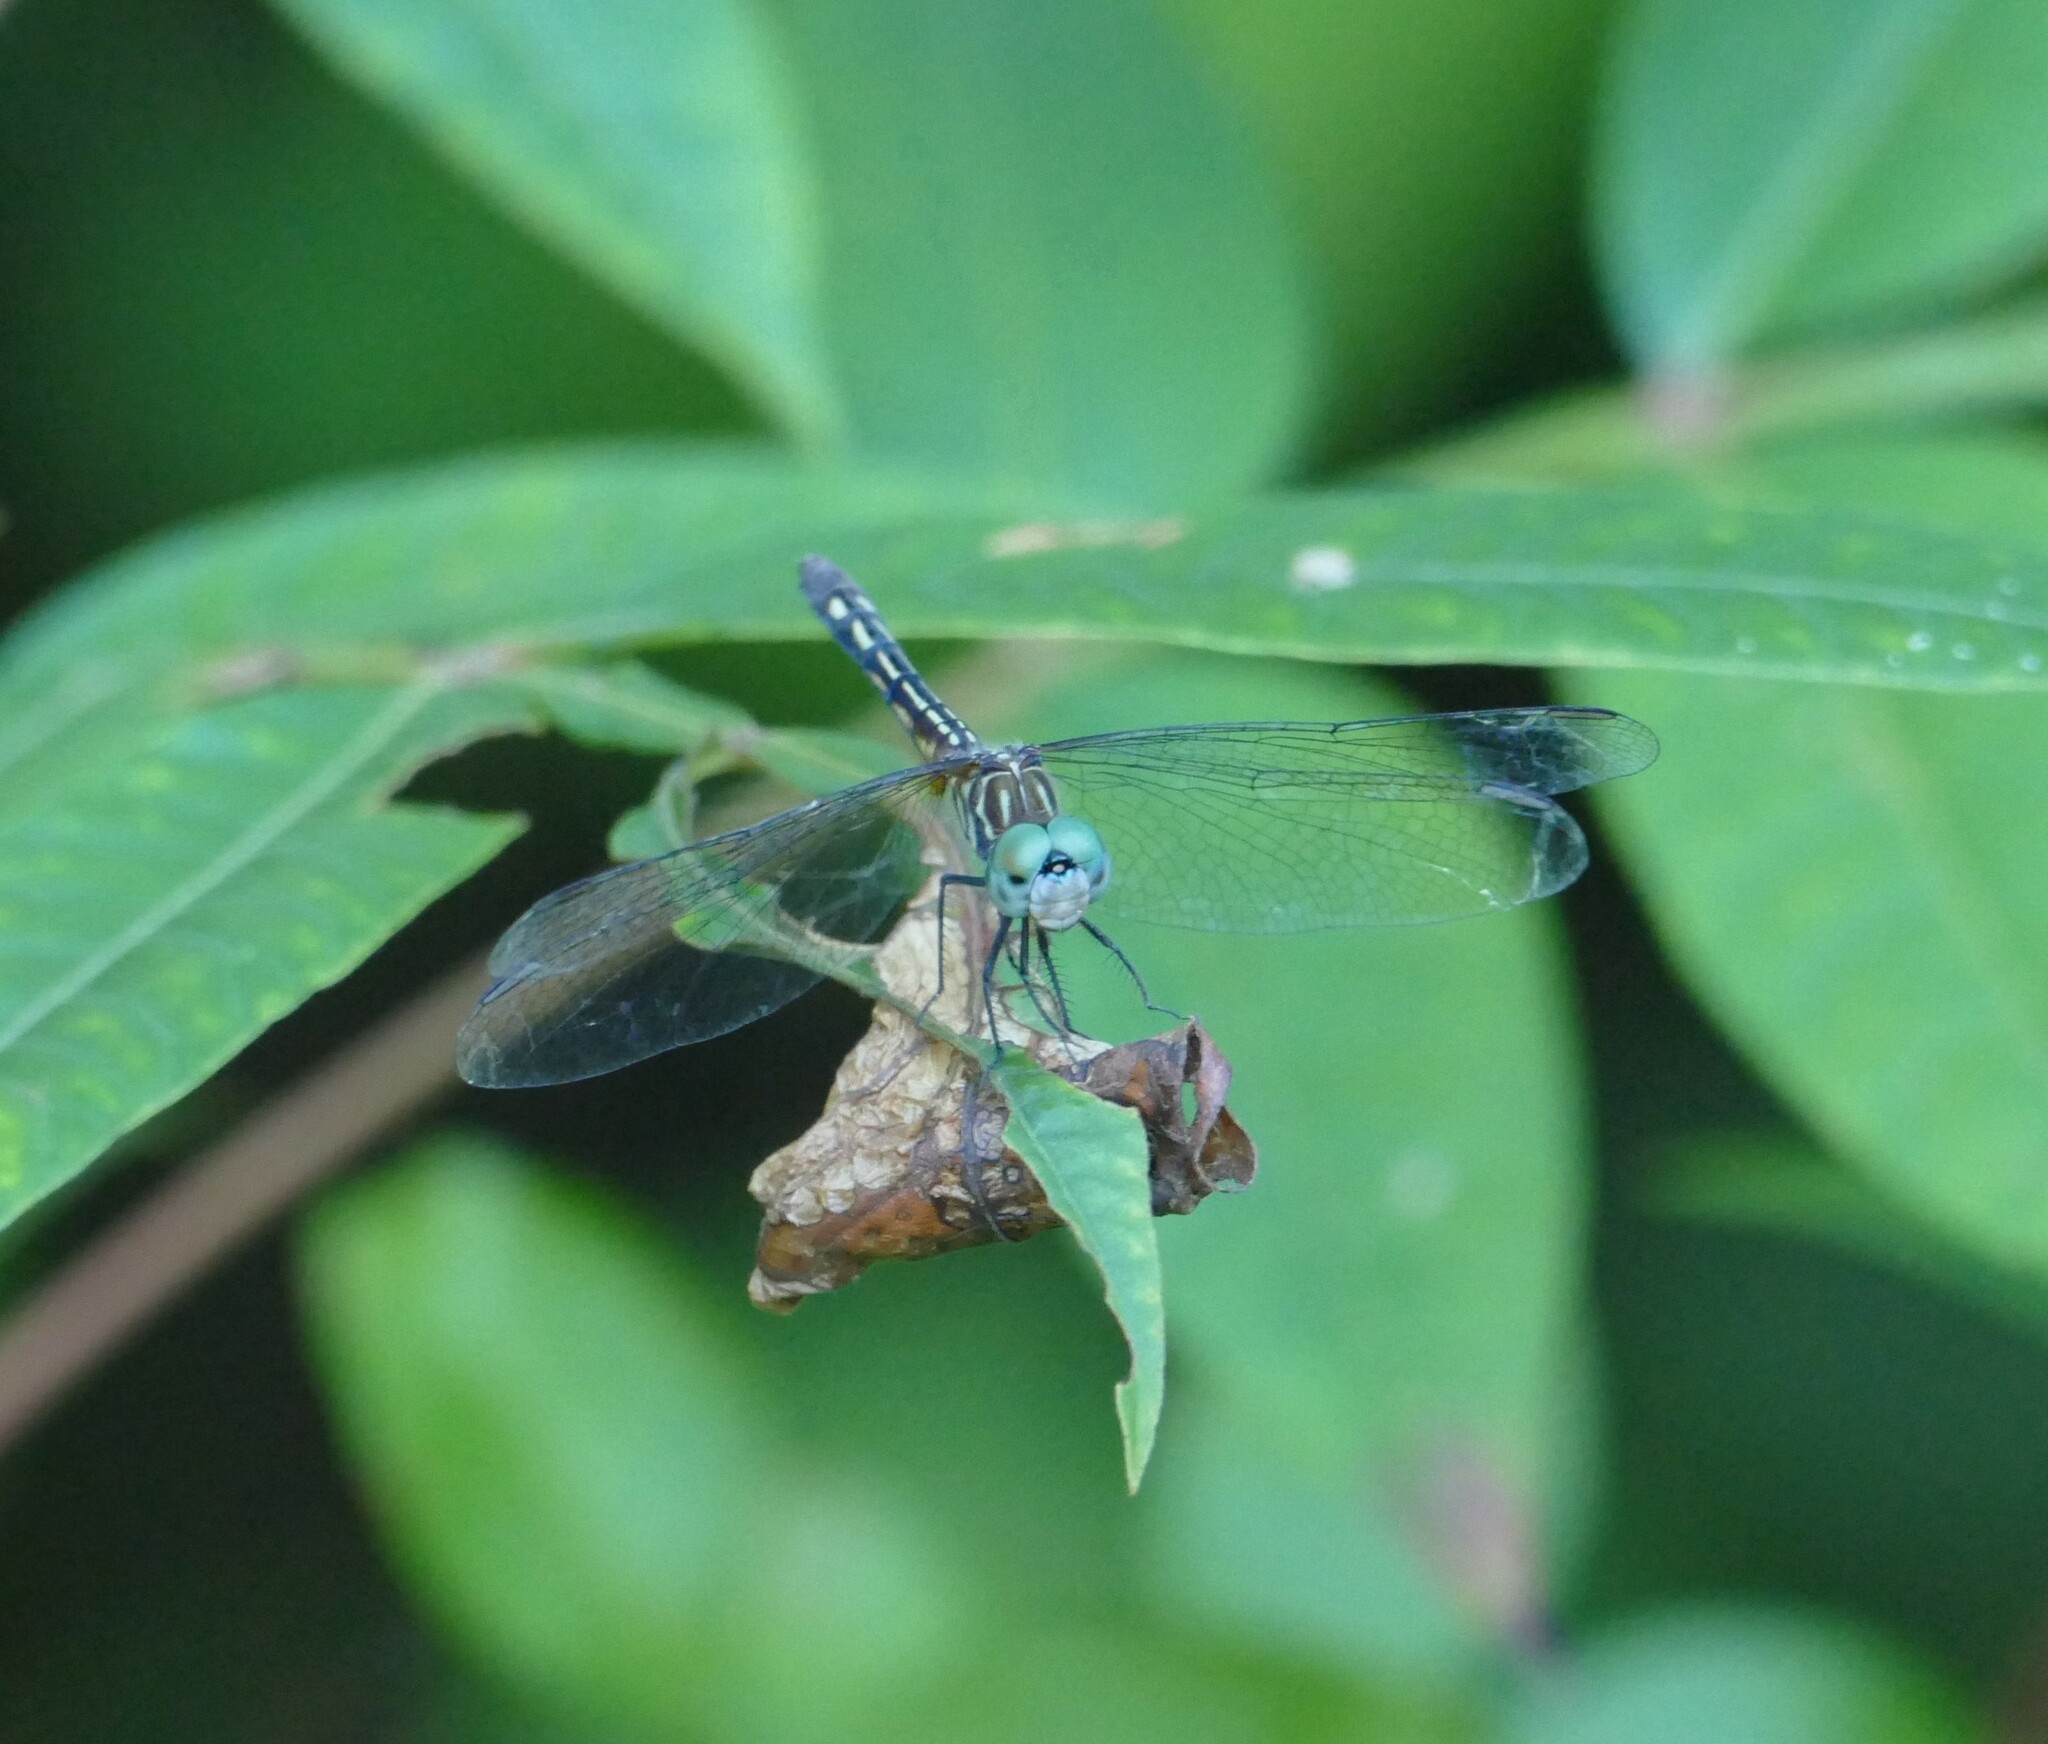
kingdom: Animalia
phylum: Arthropoda
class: Insecta
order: Odonata
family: Libellulidae
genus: Pachydiplax
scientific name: Pachydiplax longipennis
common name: Blue dasher
